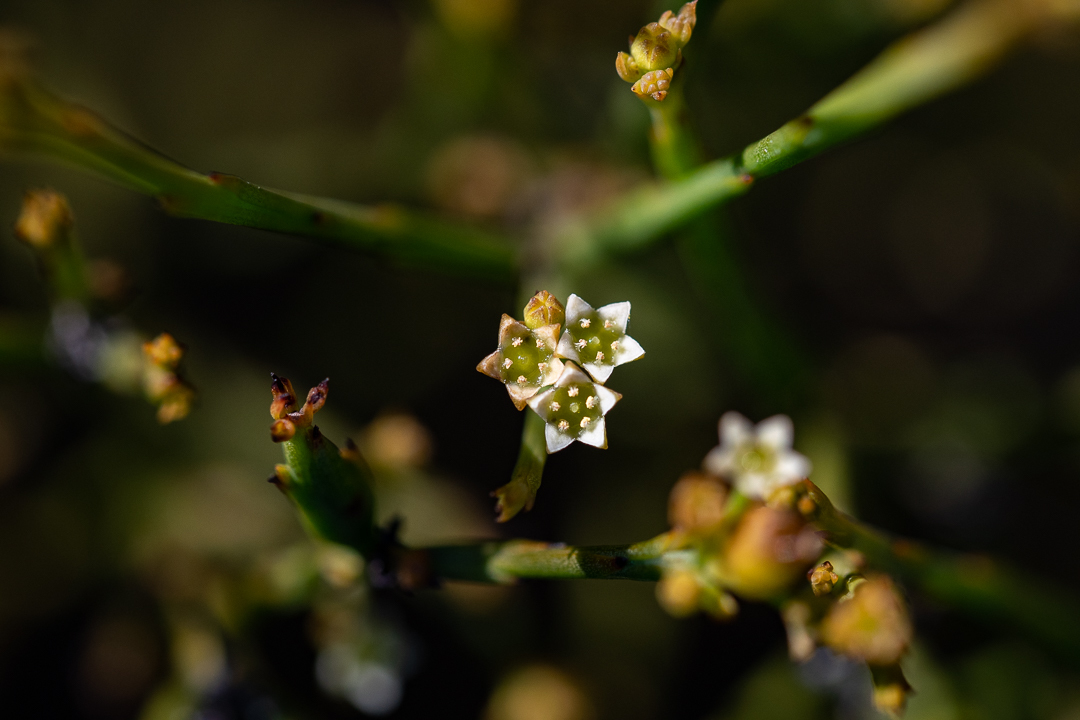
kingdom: Plantae
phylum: Tracheophyta
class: Magnoliopsida
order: Santalales
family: Thesiaceae
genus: Thesium
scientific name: Thesium virgatum
